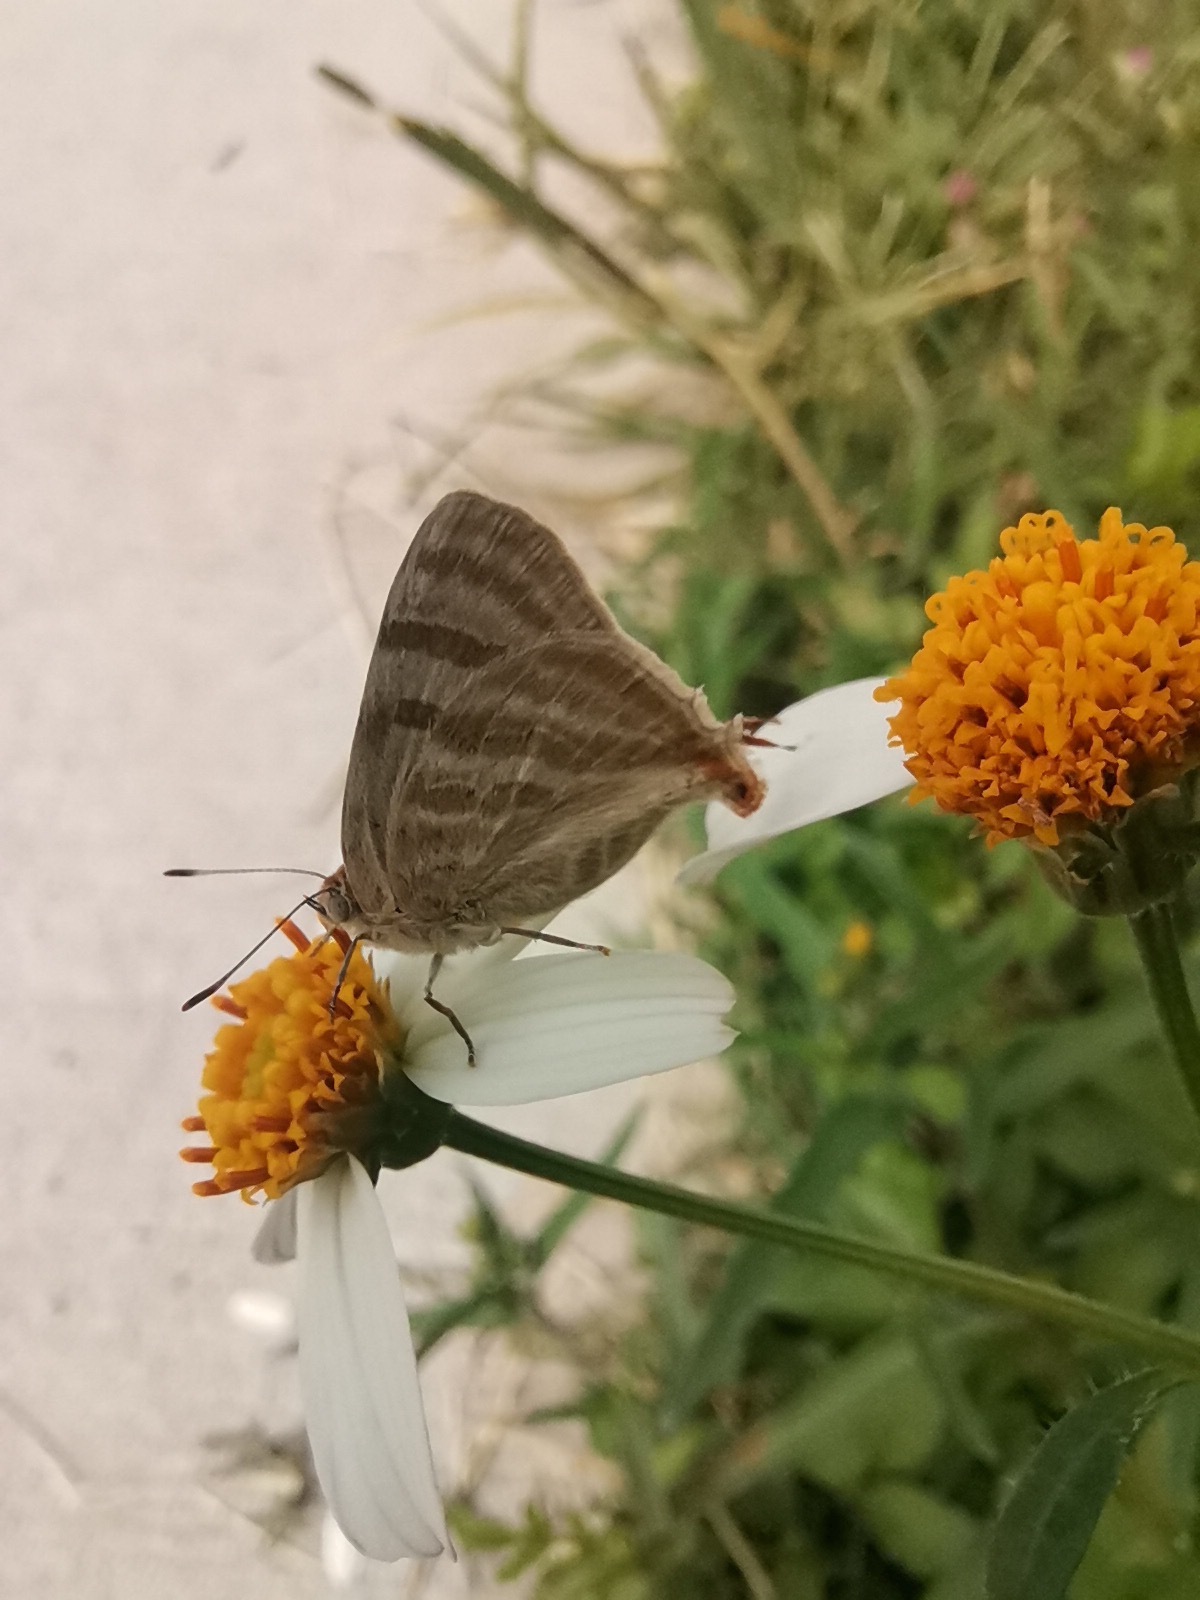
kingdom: Animalia
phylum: Arthropoda
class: Insecta
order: Lepidoptera
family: Lycaenidae
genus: Dolymorpha
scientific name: Dolymorpha jada
